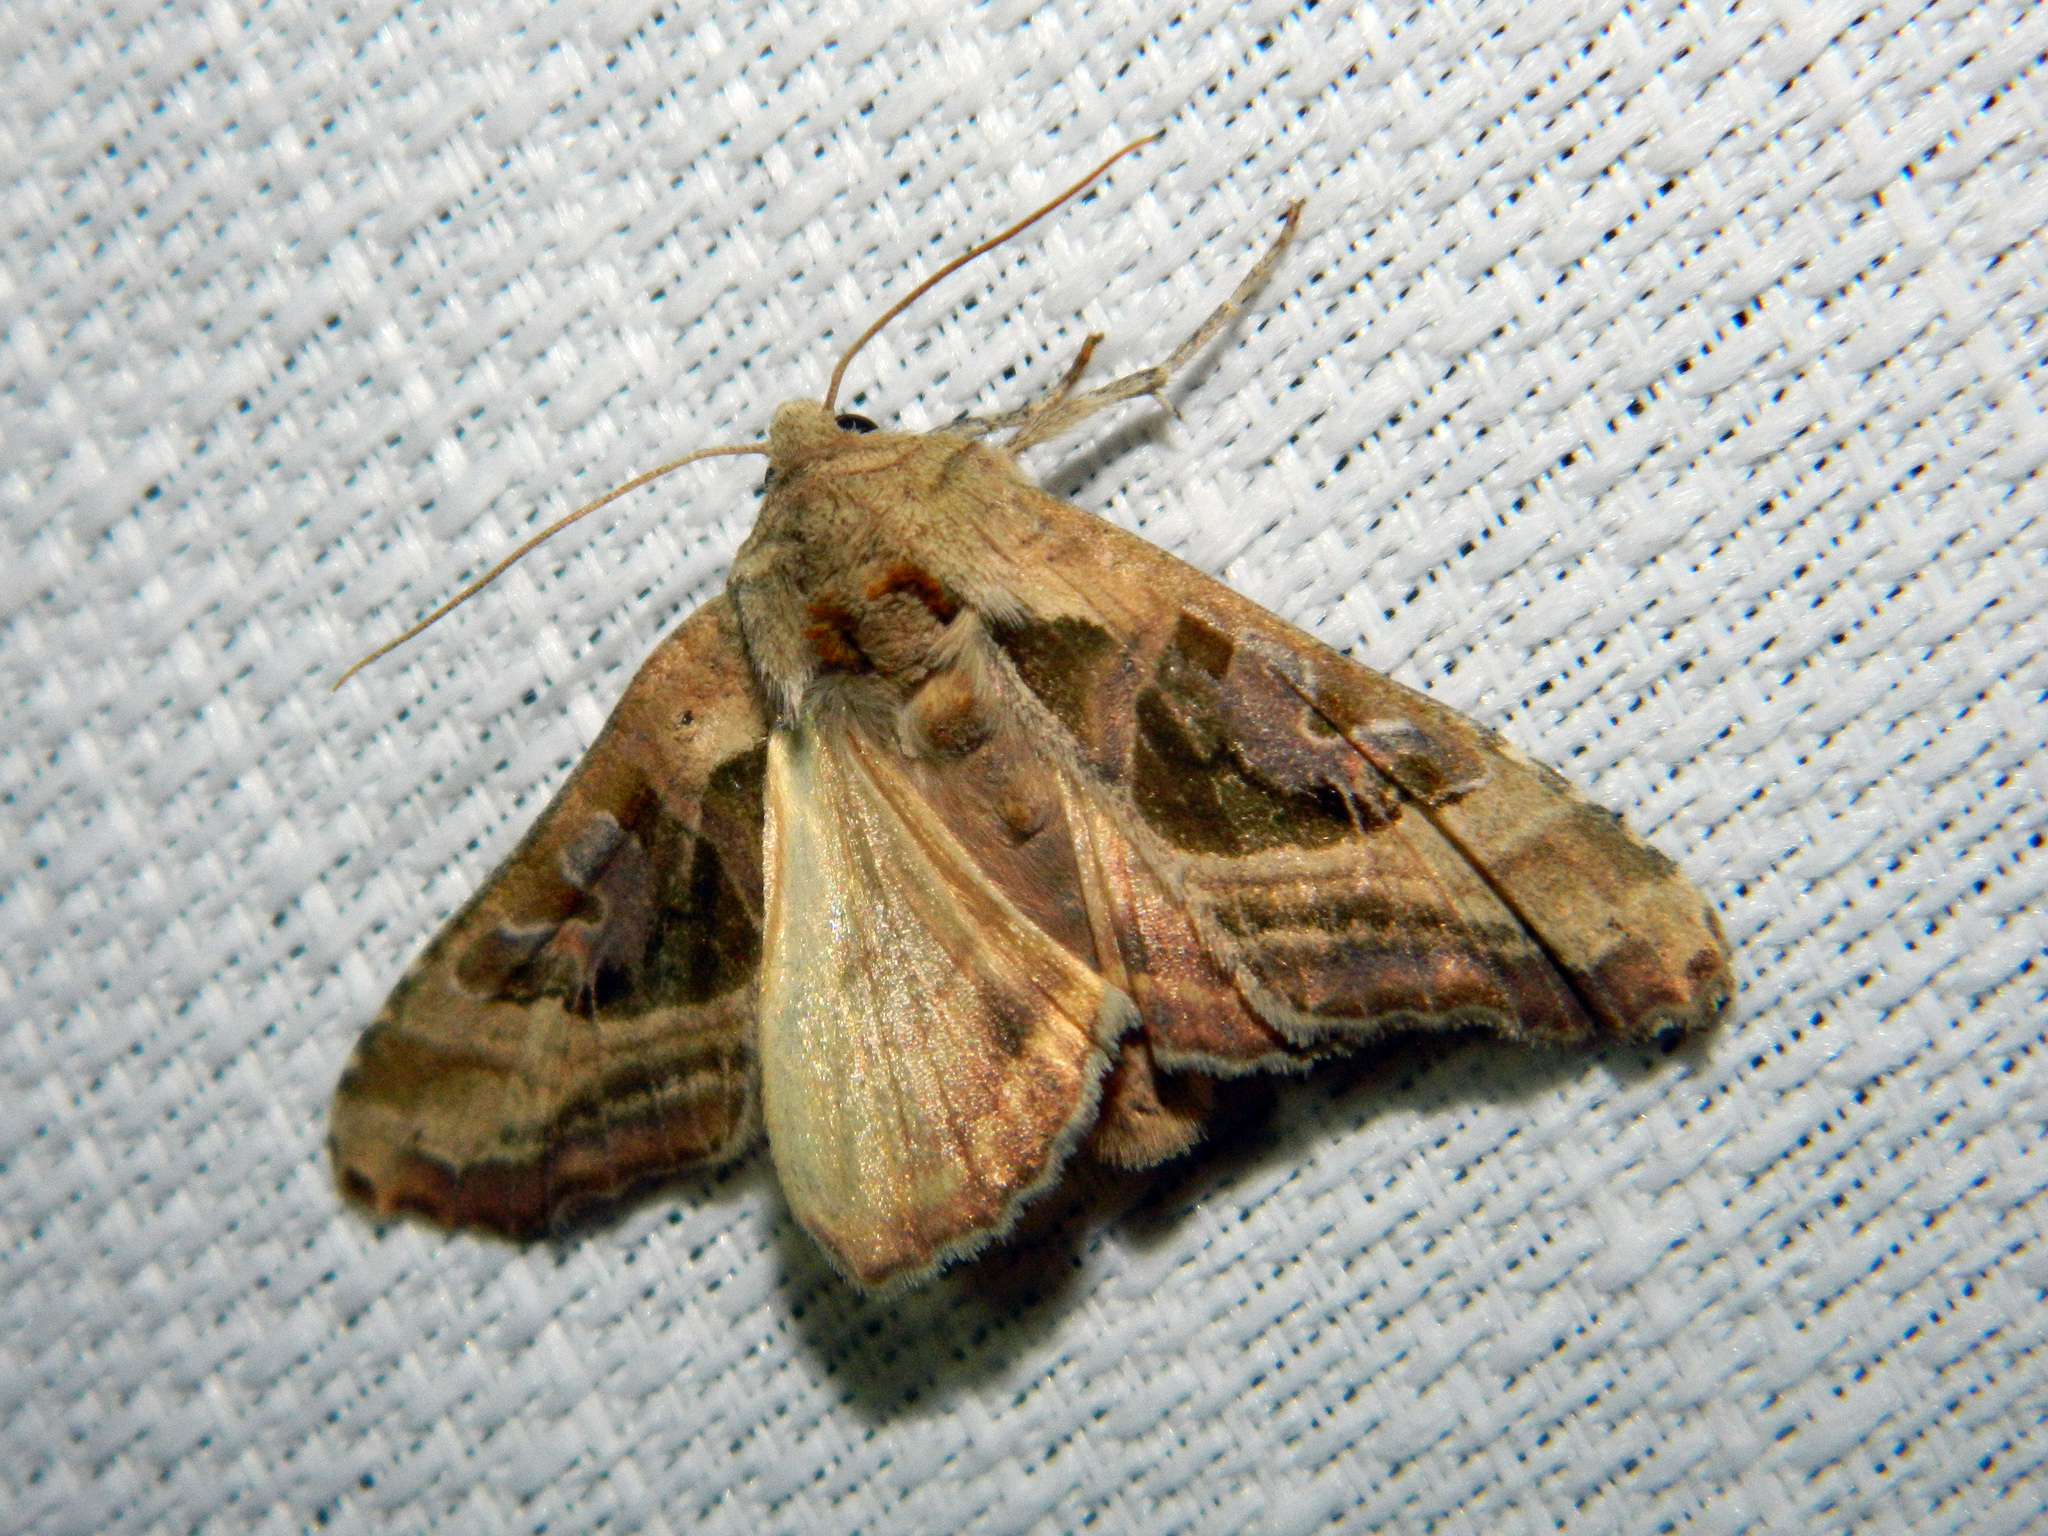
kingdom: Animalia
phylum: Arthropoda
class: Insecta
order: Lepidoptera
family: Noctuidae
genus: Phlogophora
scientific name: Phlogophora iris
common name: Olive angle shades
